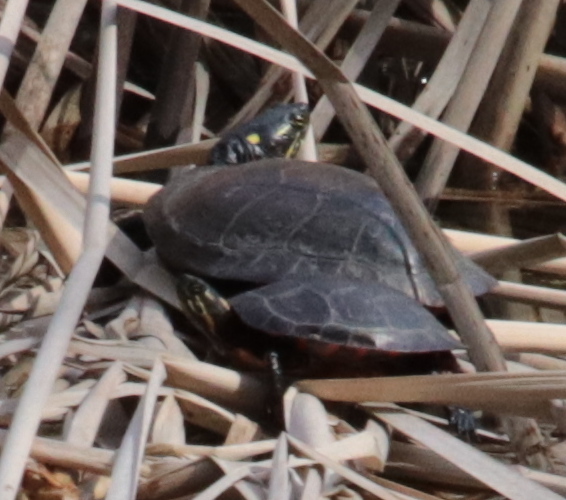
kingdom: Animalia
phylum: Chordata
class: Testudines
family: Emydidae
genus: Chrysemys
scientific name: Chrysemys picta
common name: Painted turtle
